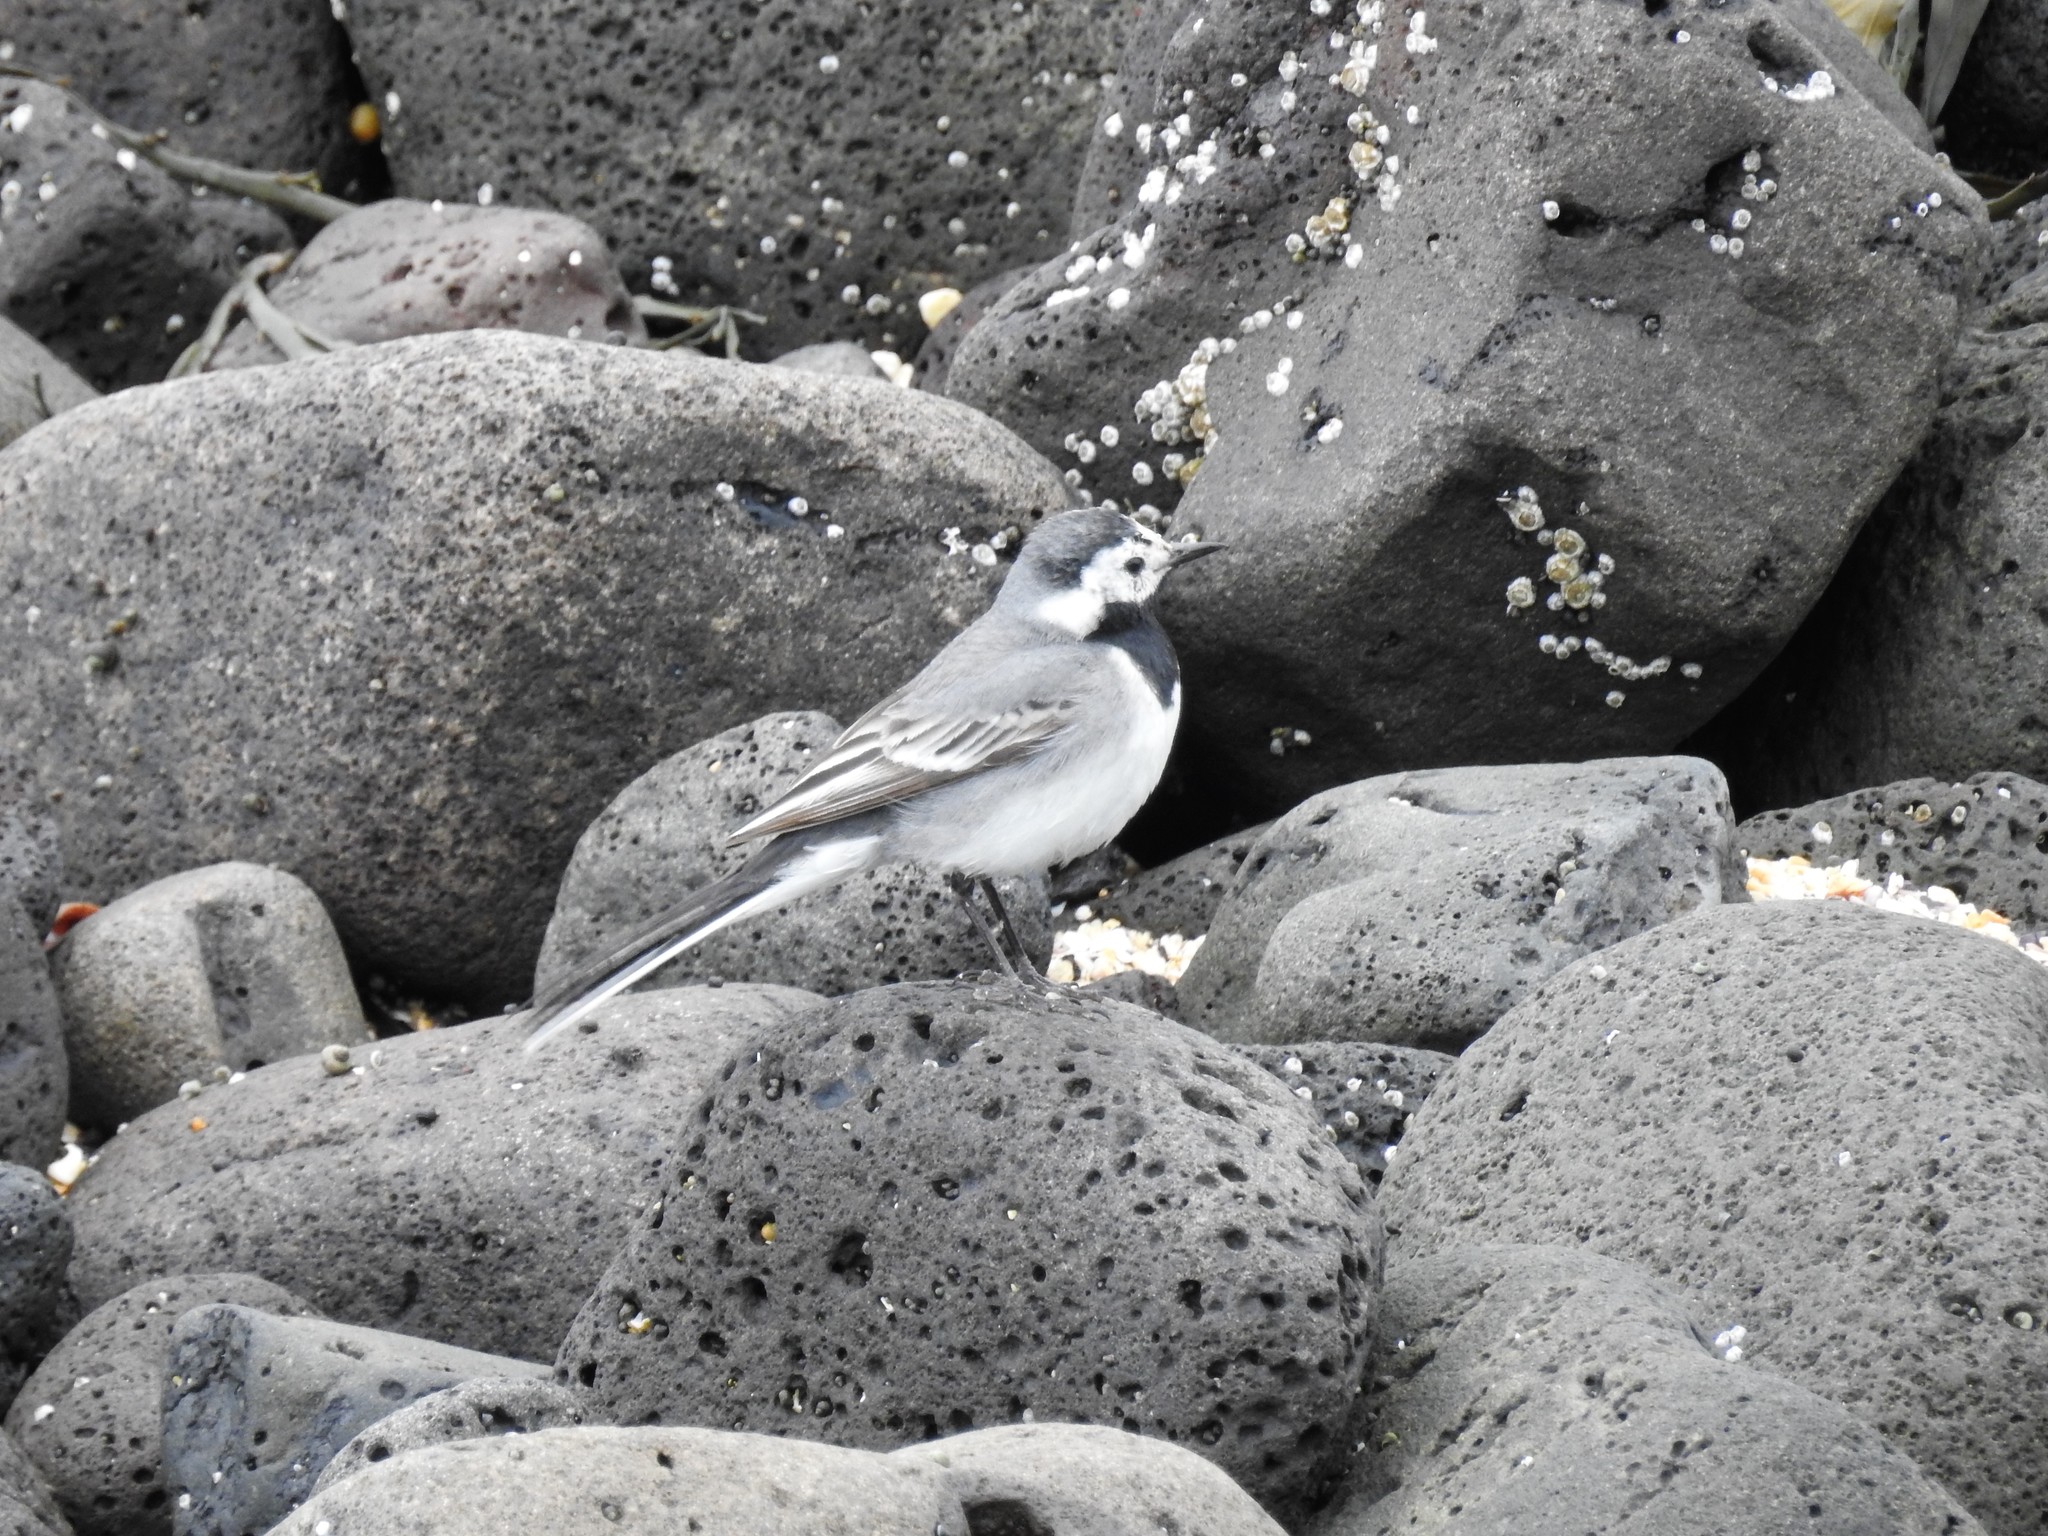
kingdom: Animalia
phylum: Chordata
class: Aves
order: Passeriformes
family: Motacillidae
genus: Motacilla
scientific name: Motacilla alba
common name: White wagtail
